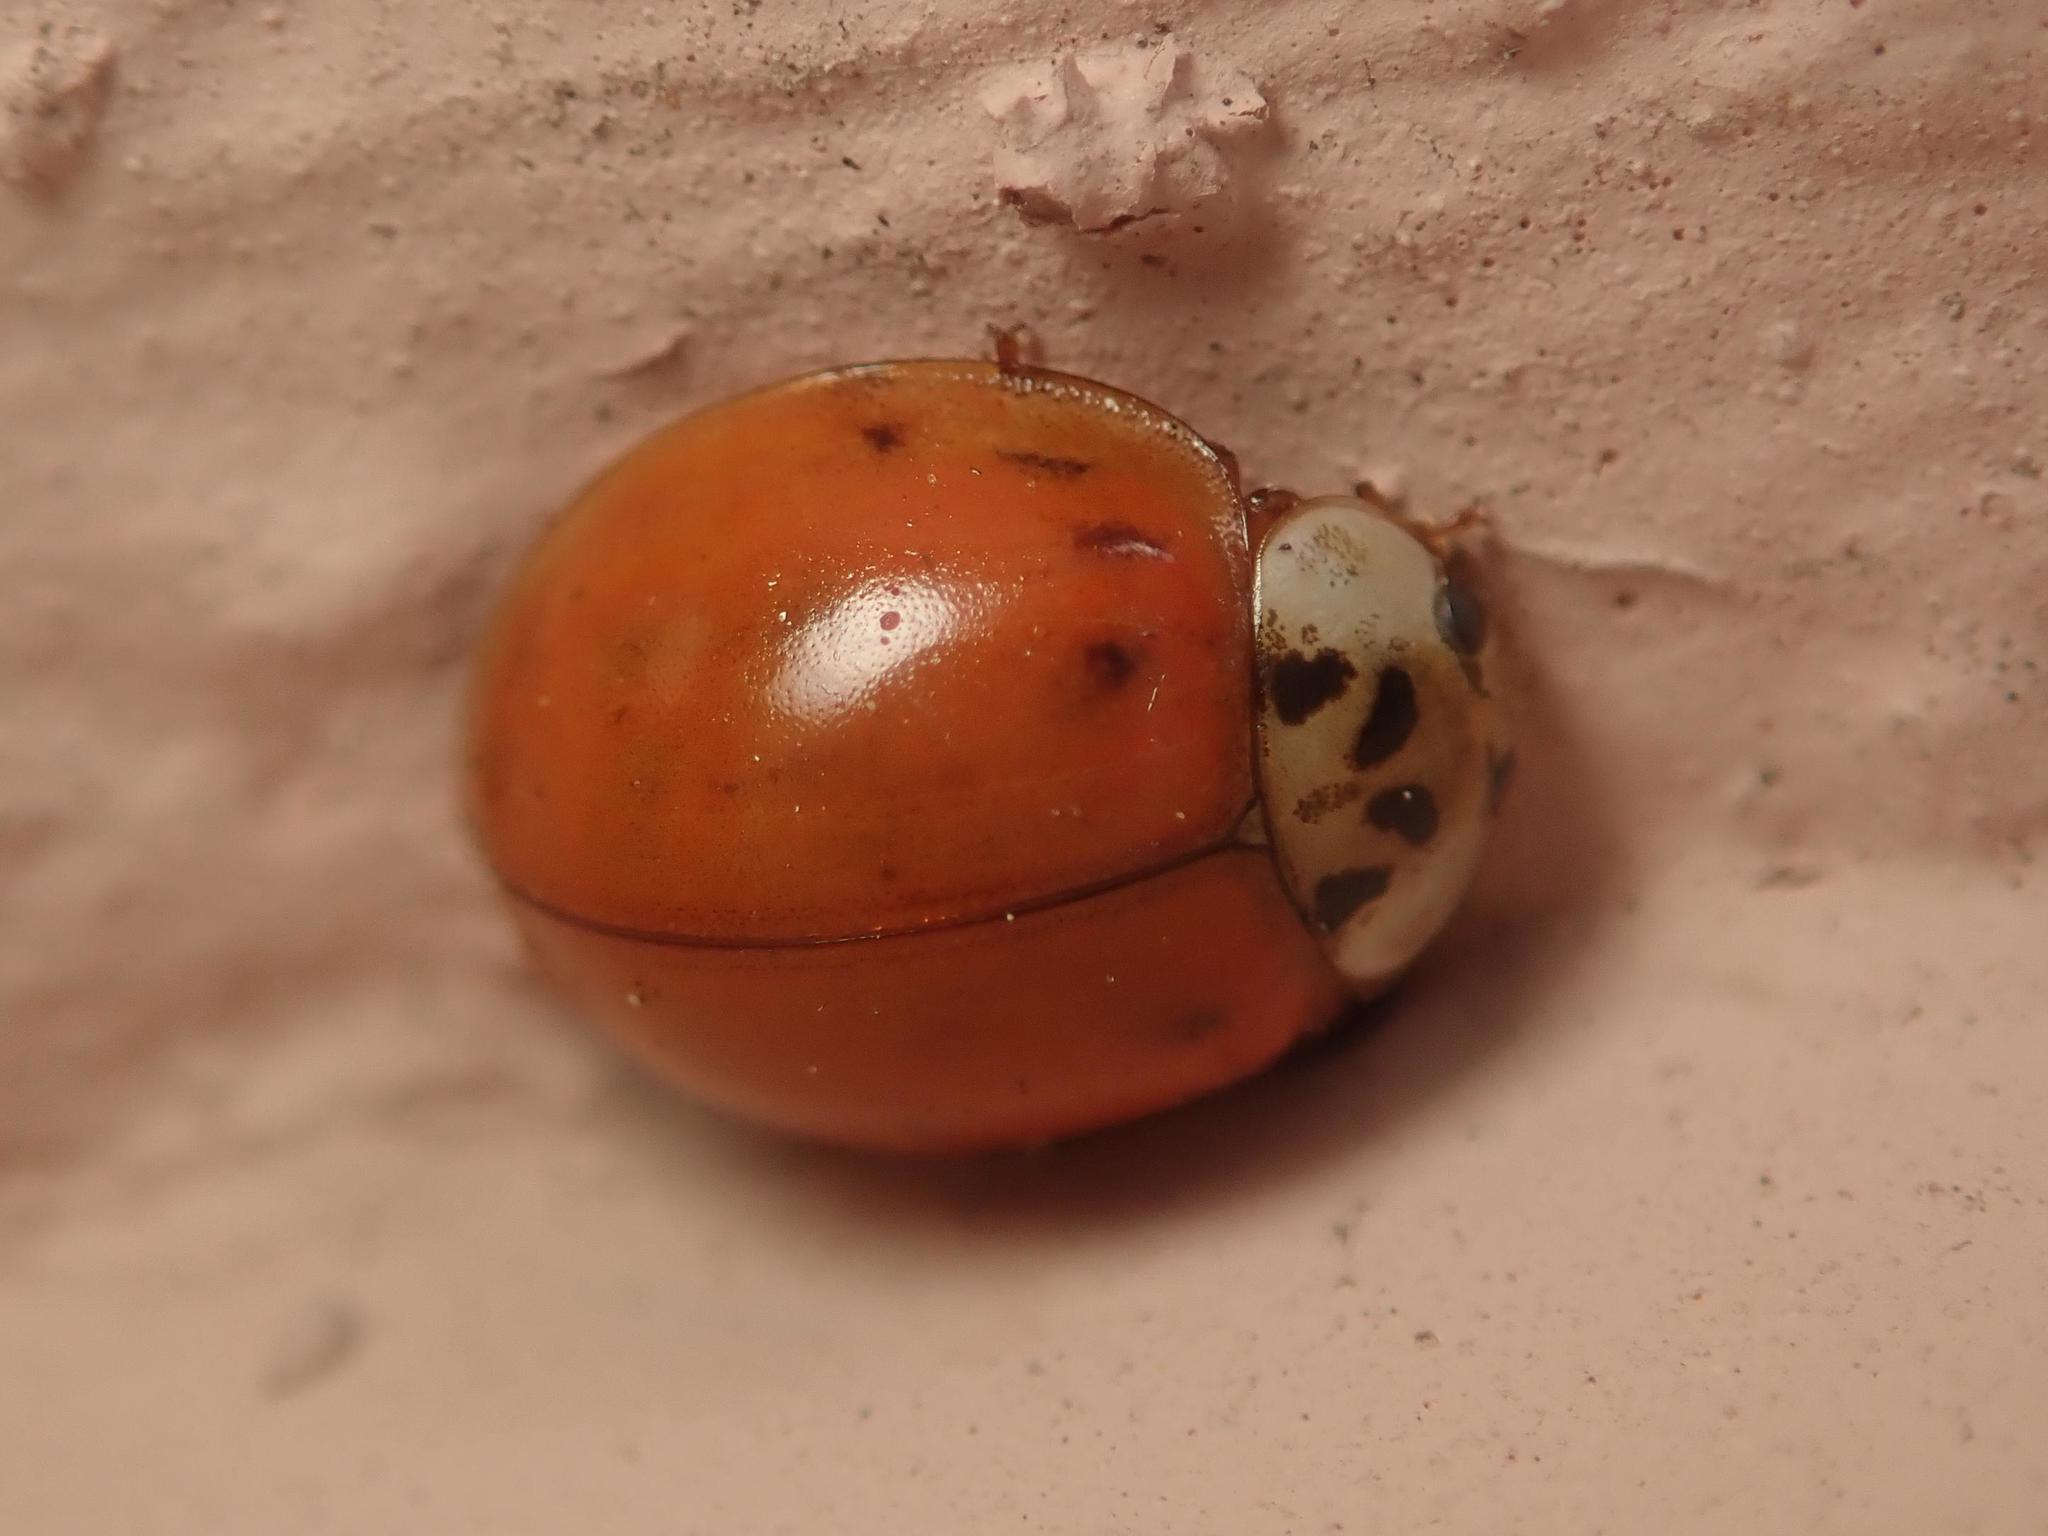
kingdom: Animalia
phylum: Arthropoda
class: Insecta
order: Coleoptera
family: Coccinellidae
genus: Harmonia
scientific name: Harmonia axyridis
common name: Harlequin ladybird
